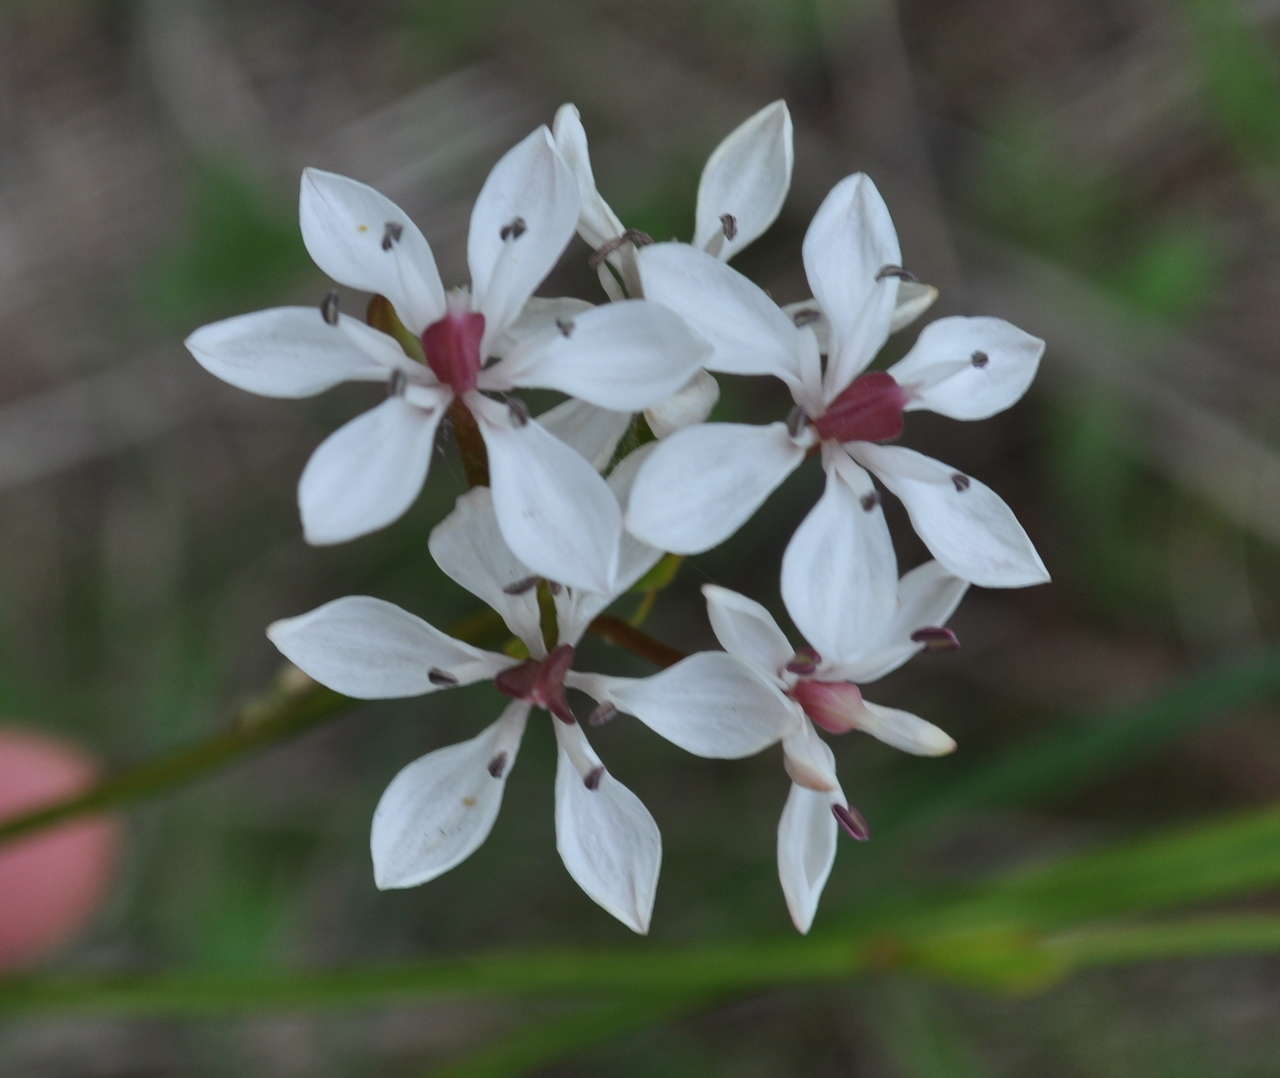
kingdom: Plantae
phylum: Tracheophyta
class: Liliopsida
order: Liliales
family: Colchicaceae
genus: Burchardia
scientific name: Burchardia umbellata
